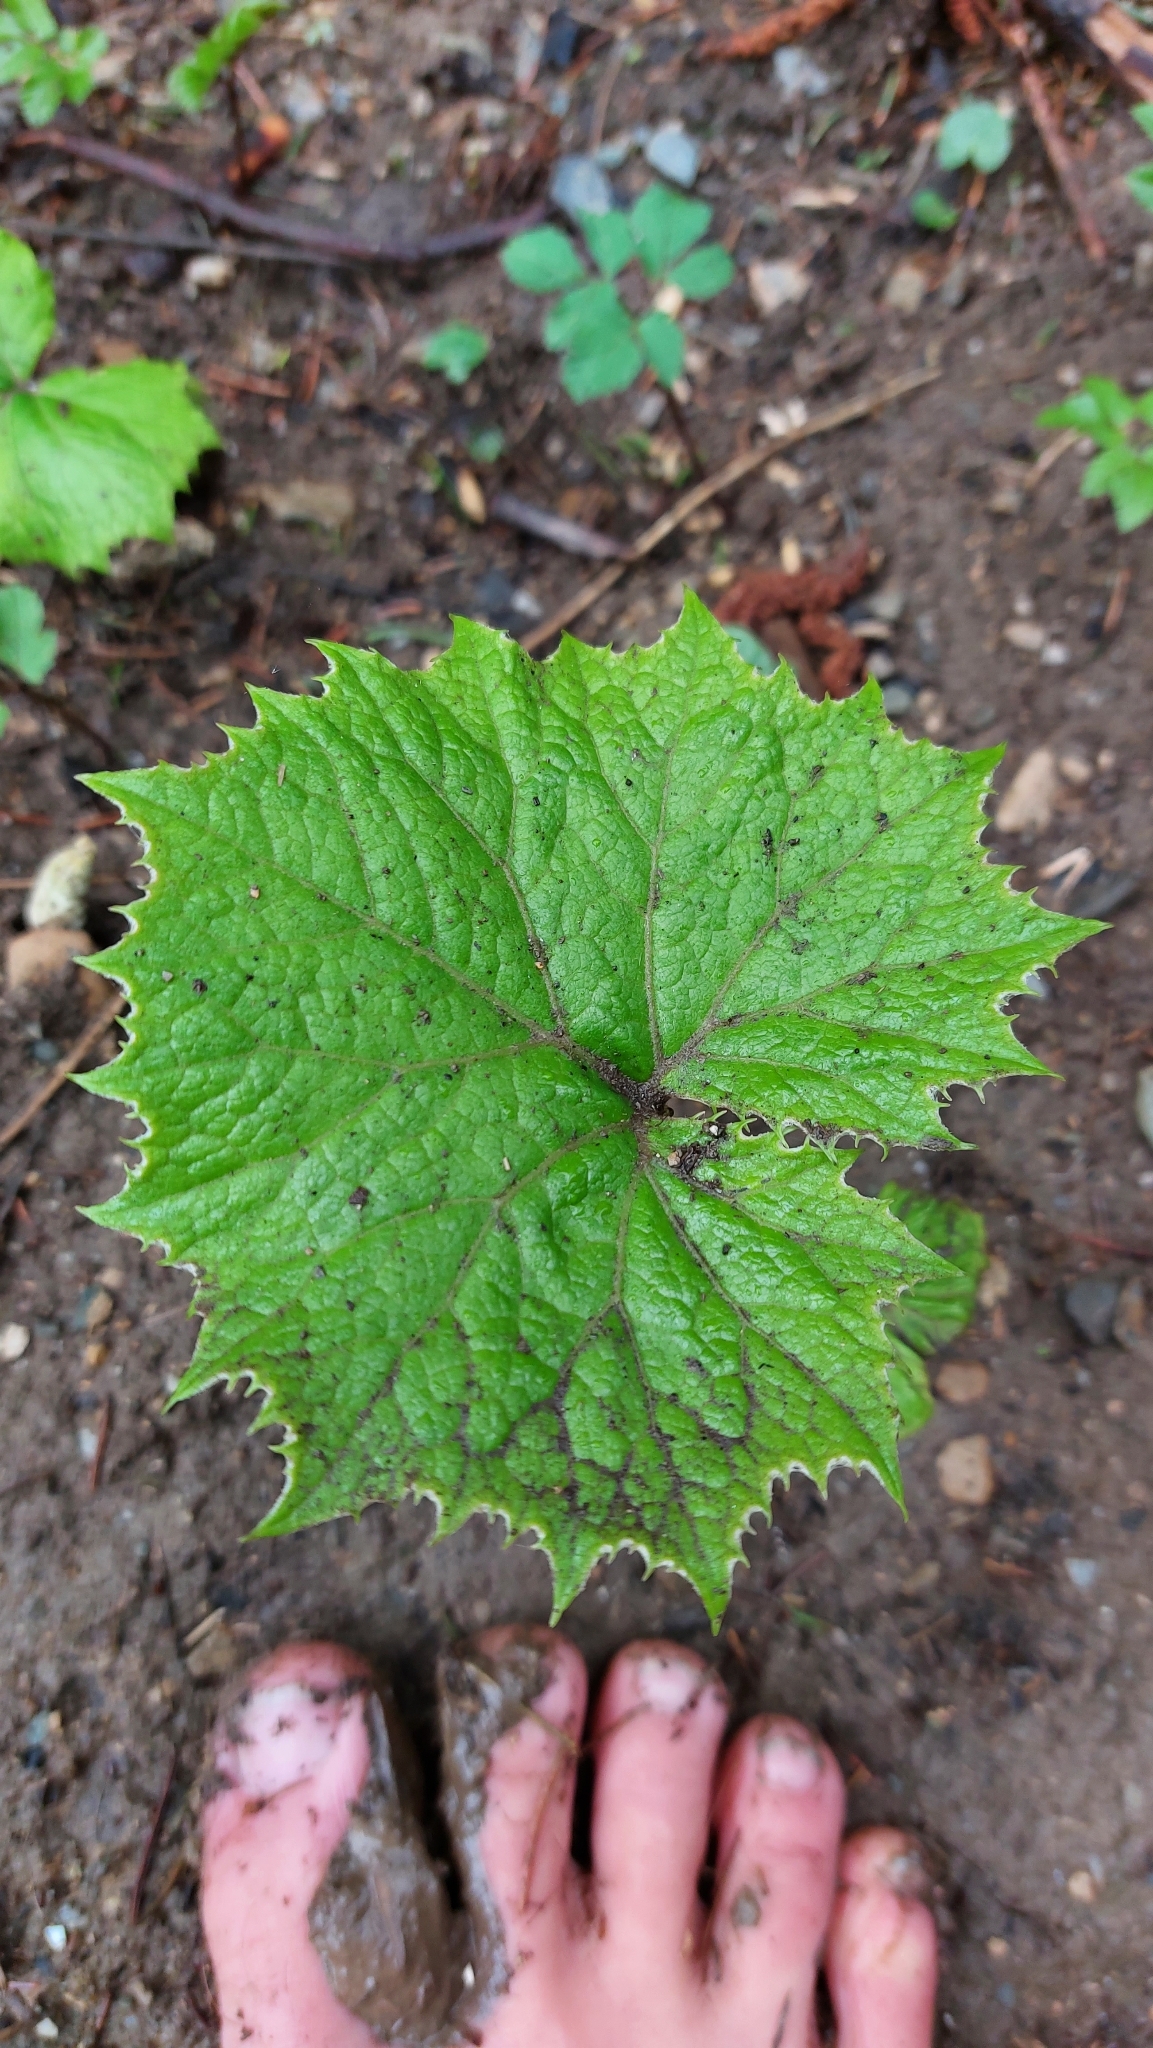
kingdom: Plantae
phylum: Tracheophyta
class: Magnoliopsida
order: Asterales
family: Asteraceae
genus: Petasites
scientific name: Petasites albus
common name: White butterbur
